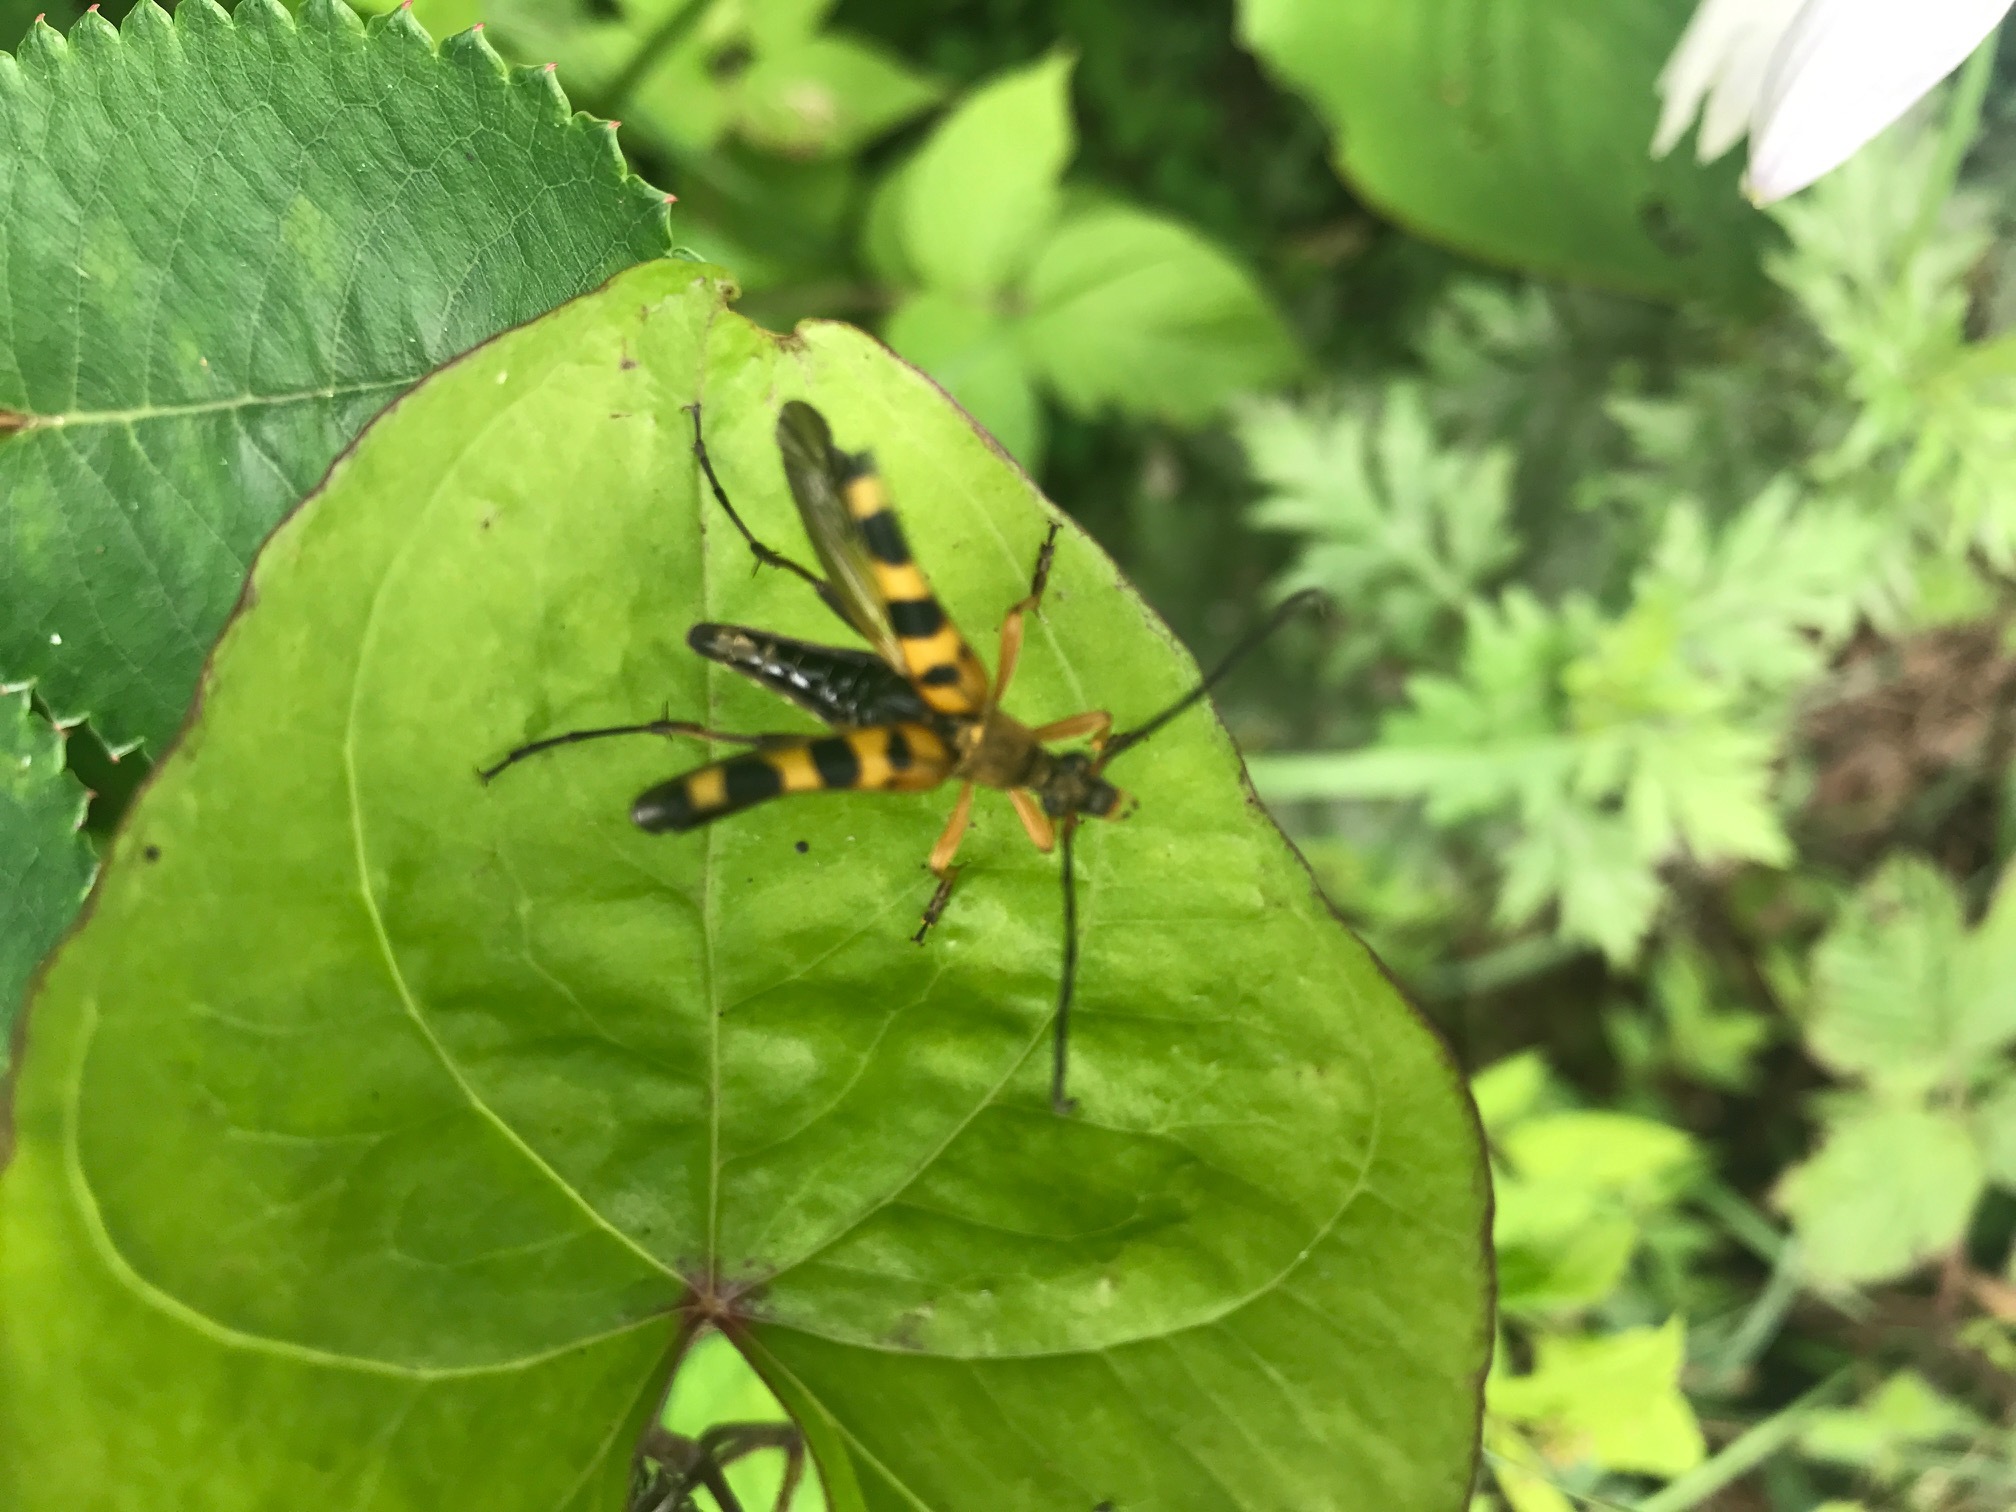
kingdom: Animalia
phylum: Arthropoda
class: Insecta
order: Coleoptera
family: Cerambycidae
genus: Leptura
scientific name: Leptura ochraceofasciata
